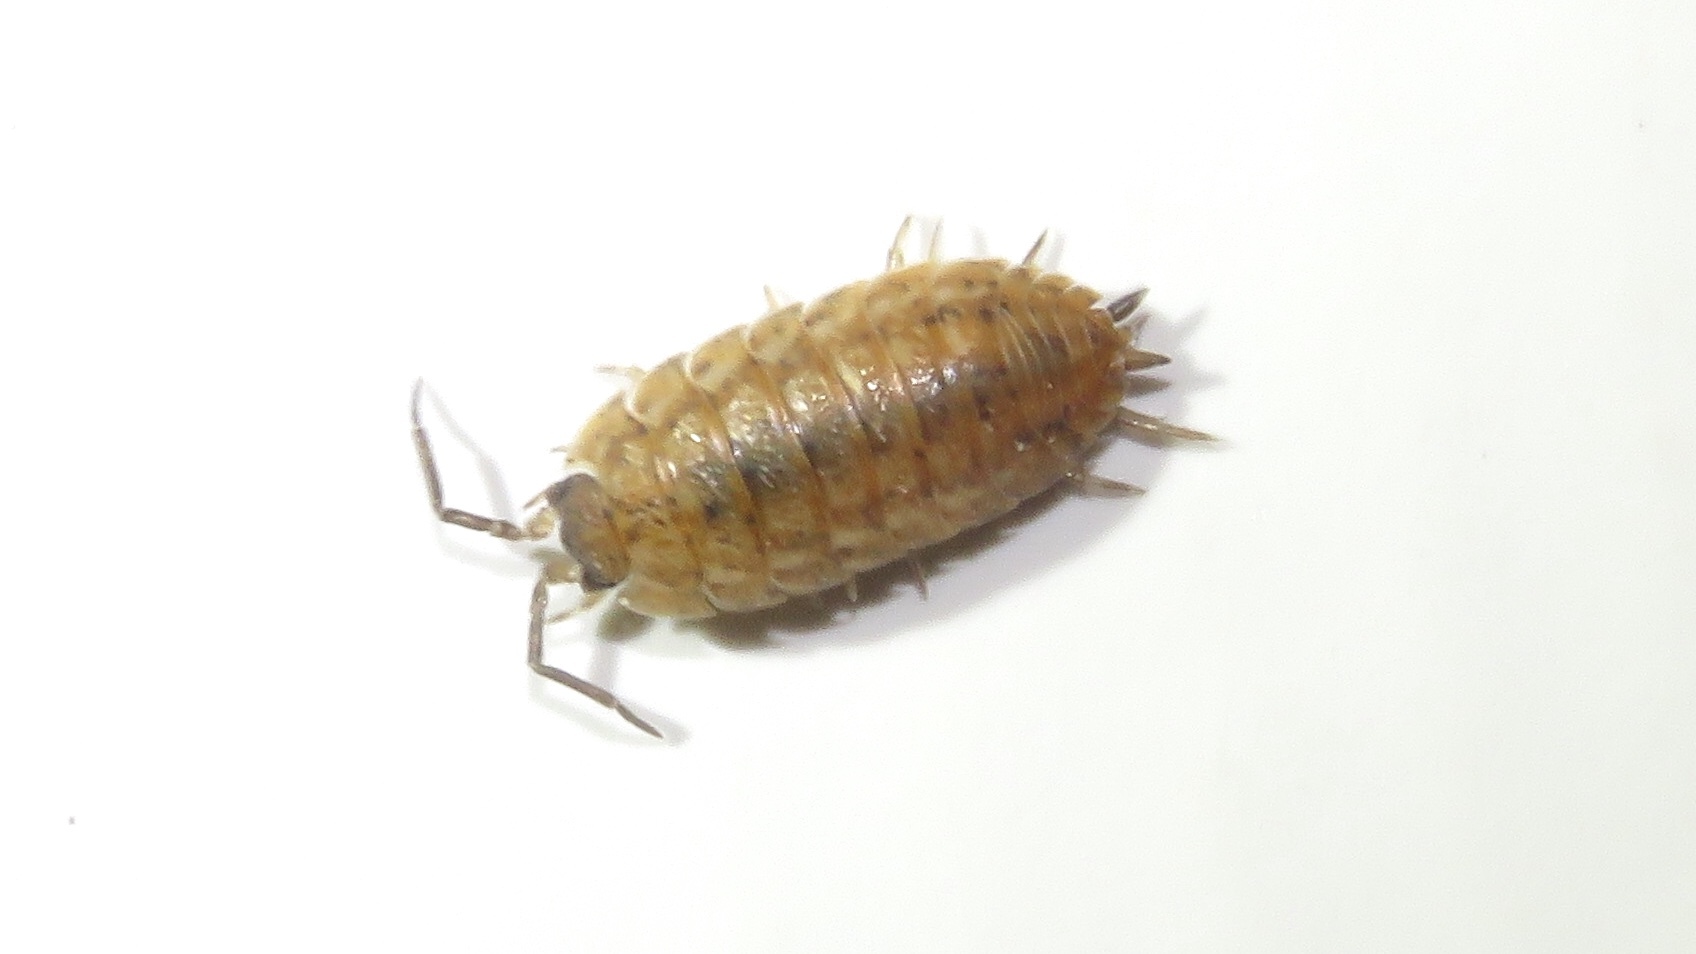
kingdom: Animalia
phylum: Arthropoda
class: Malacostraca
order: Isopoda
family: Trachelipodidae
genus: Trachelipus
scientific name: Trachelipus rathkii
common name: Isopod
